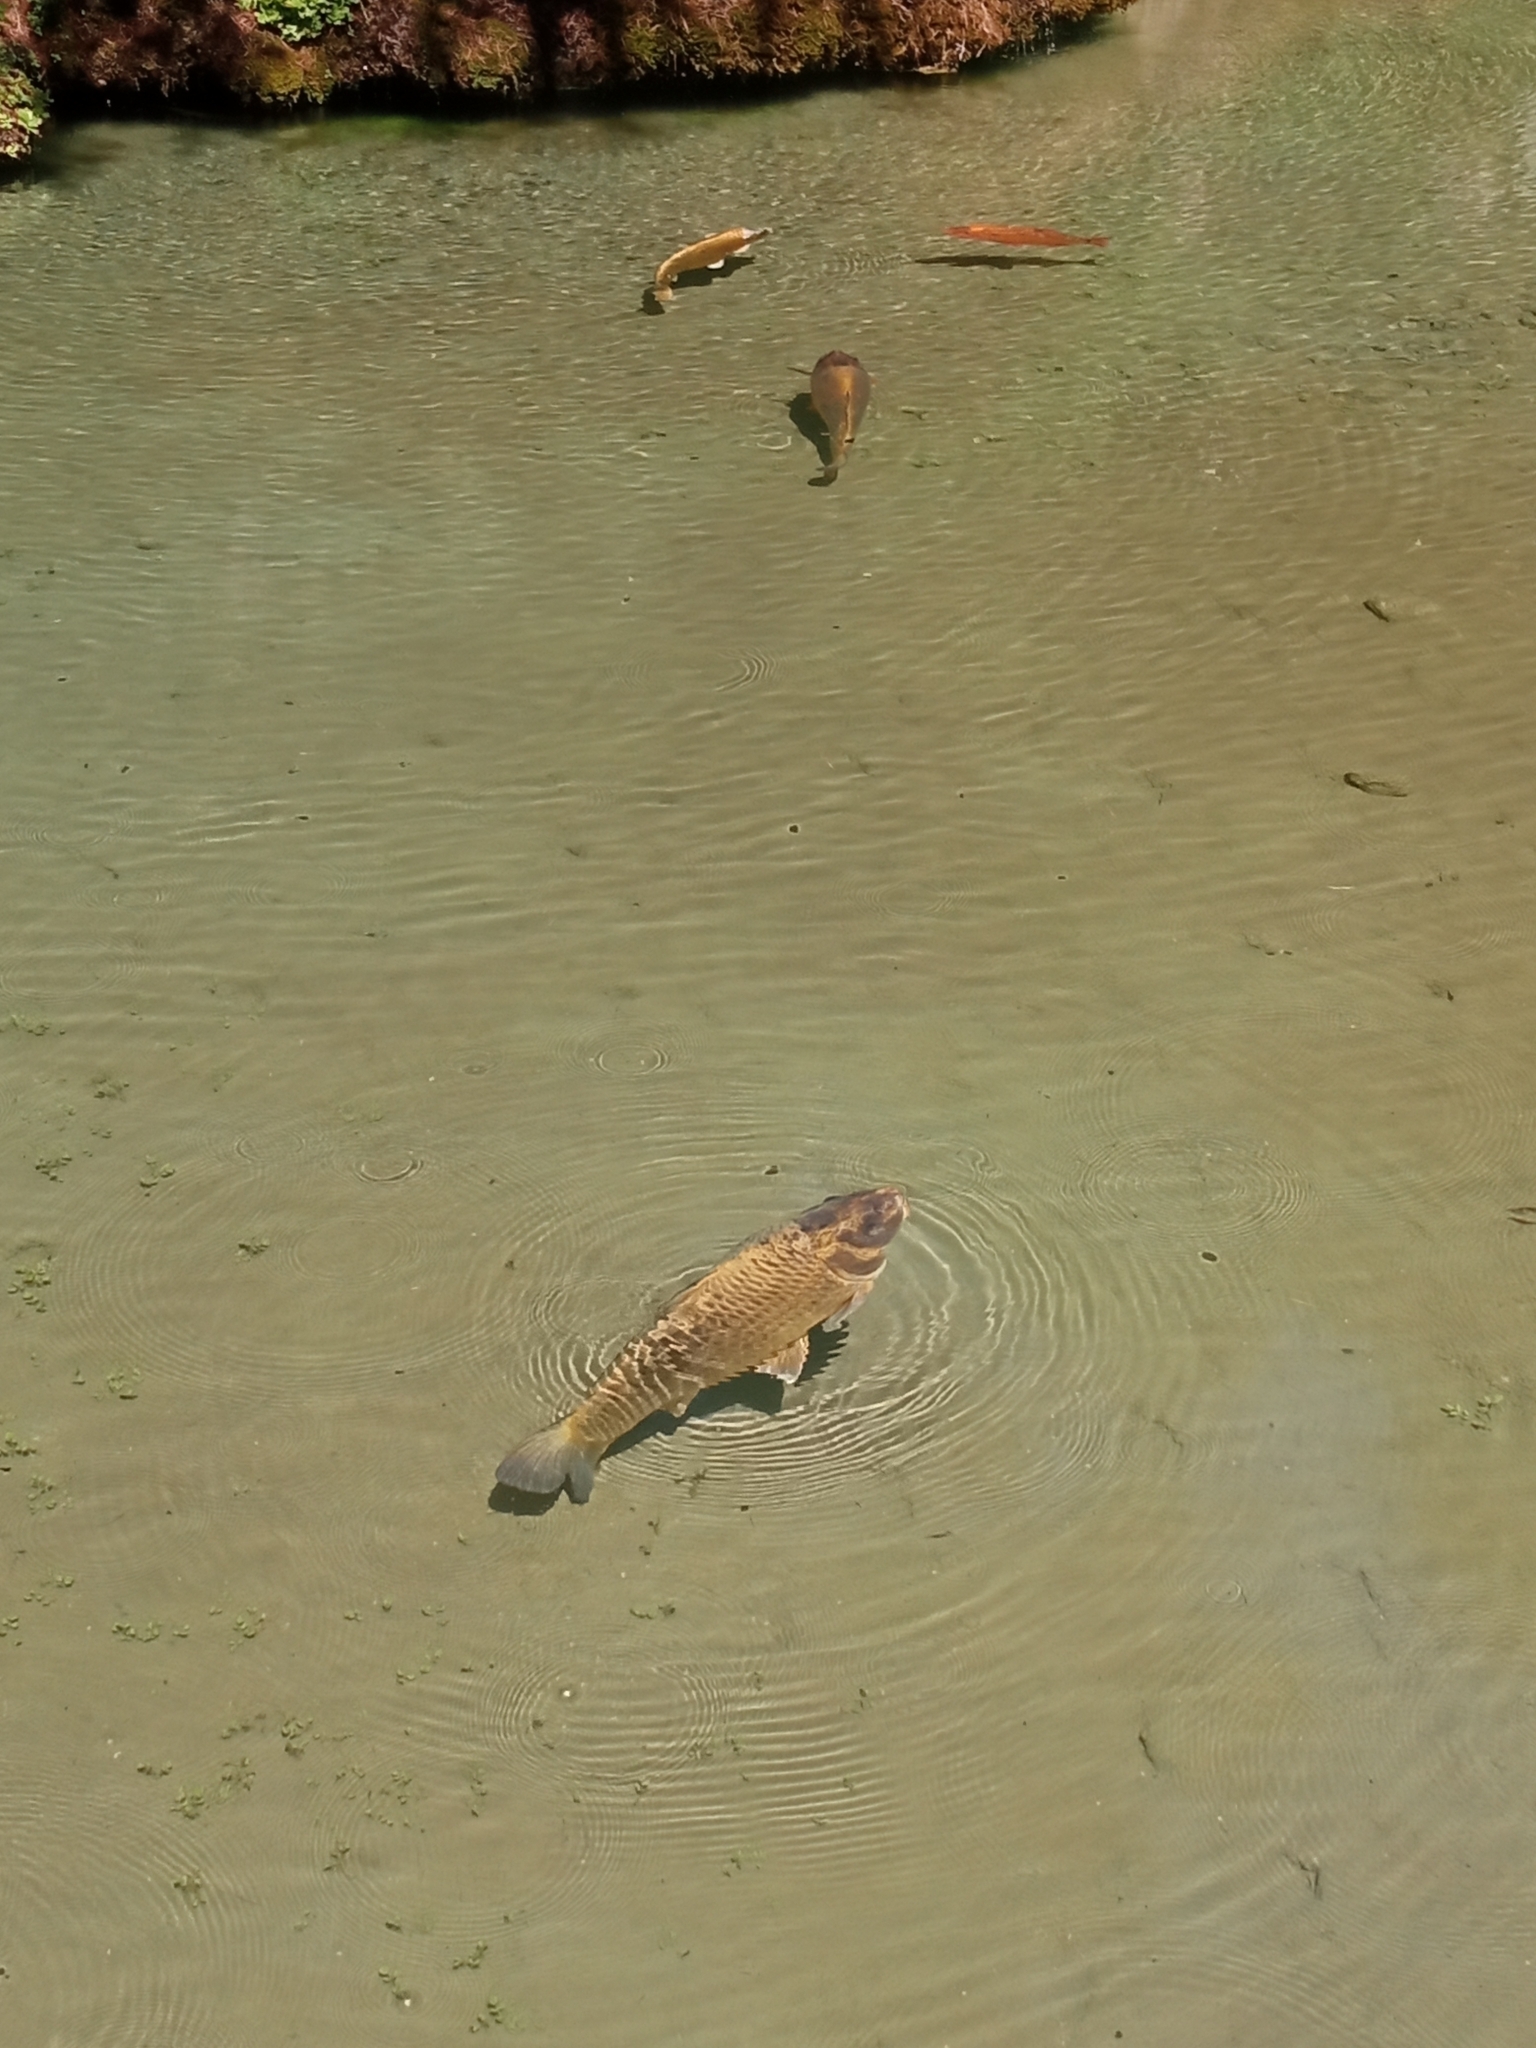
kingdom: Animalia
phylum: Chordata
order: Cypriniformes
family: Cyprinidae
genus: Cyprinus
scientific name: Cyprinus carpio
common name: Common carp
